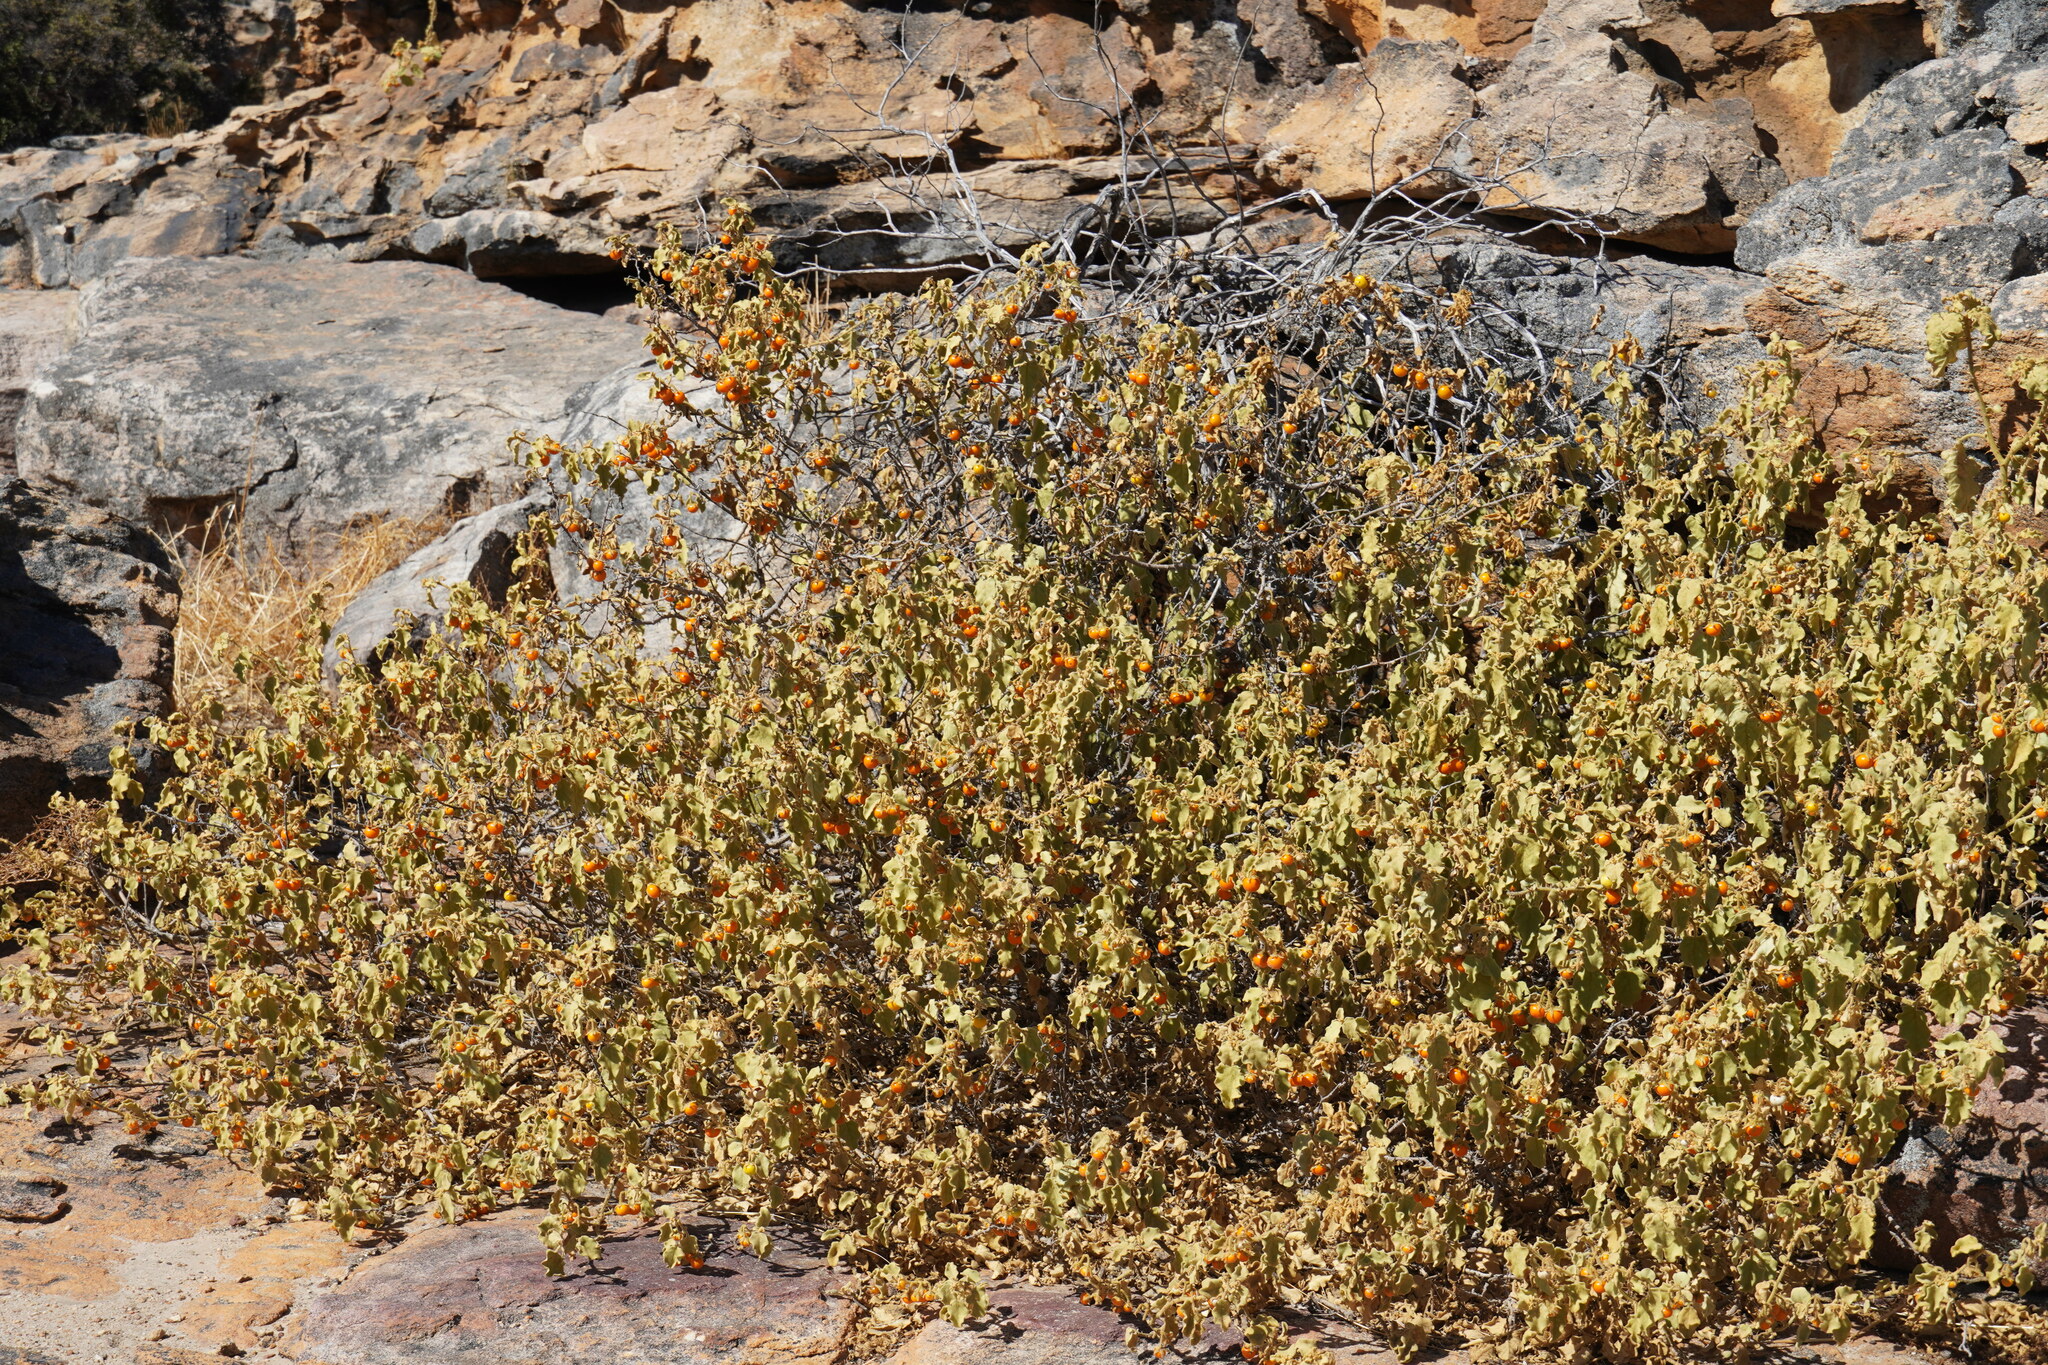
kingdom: Plantae
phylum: Tracheophyta
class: Magnoliopsida
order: Solanales
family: Solanaceae
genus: Solanum
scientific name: Solanum tomentosum
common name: Wild aubergine
